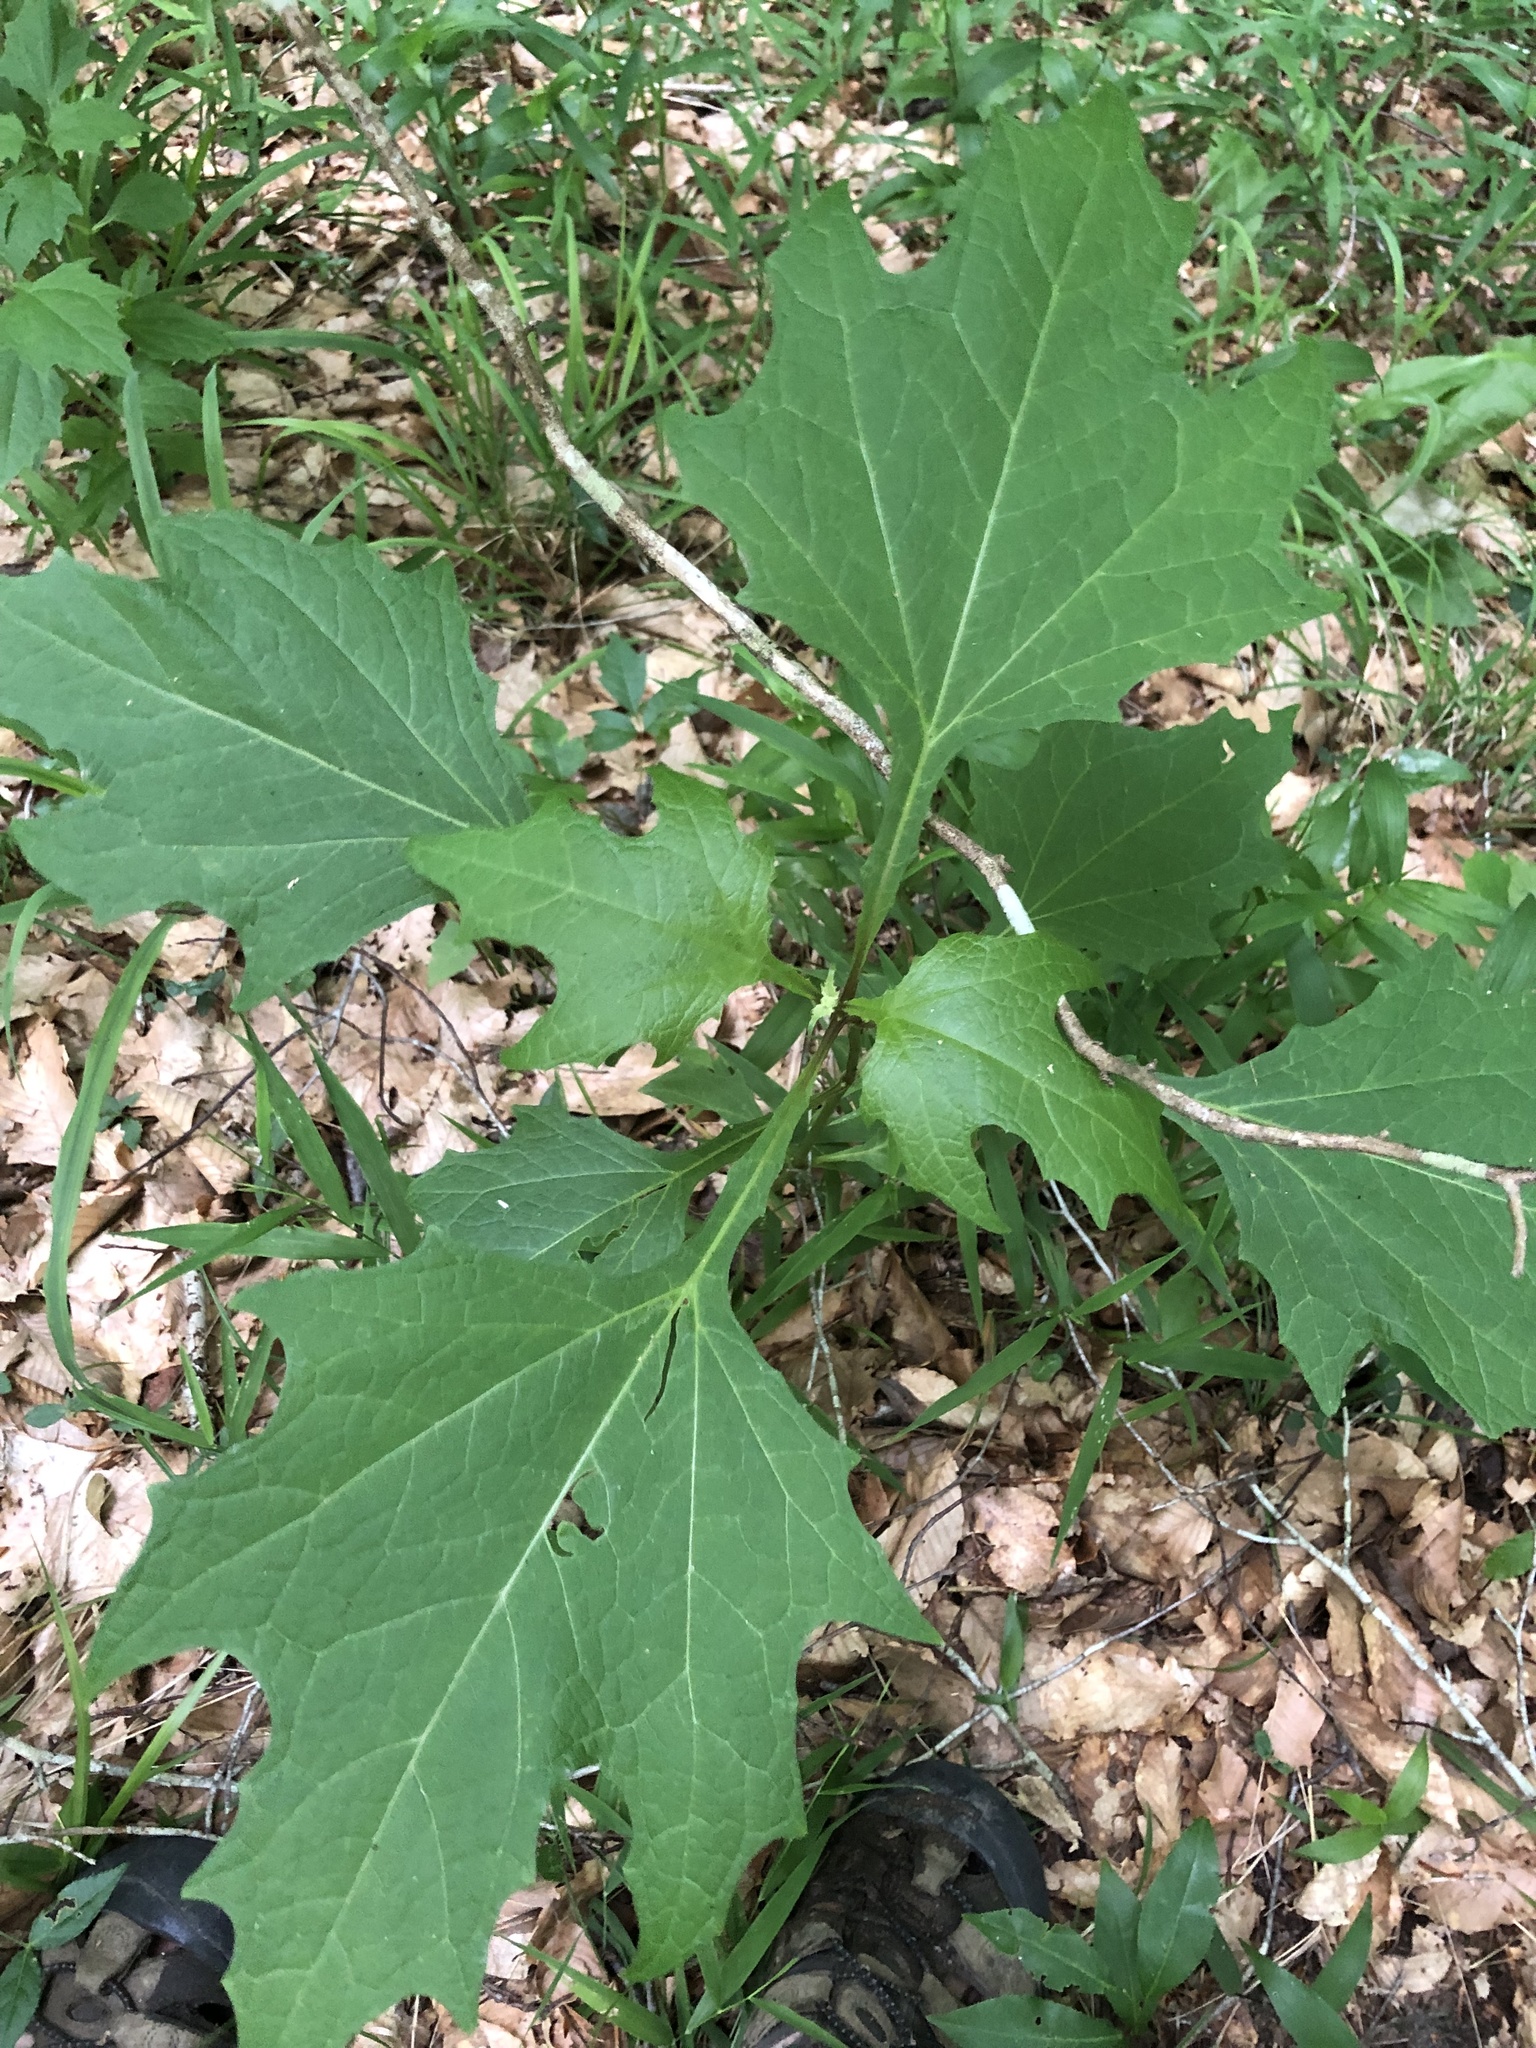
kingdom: Plantae
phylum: Tracheophyta
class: Magnoliopsida
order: Asterales
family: Asteraceae
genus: Smallanthus
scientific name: Smallanthus uvedalia
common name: Bear's-foot
